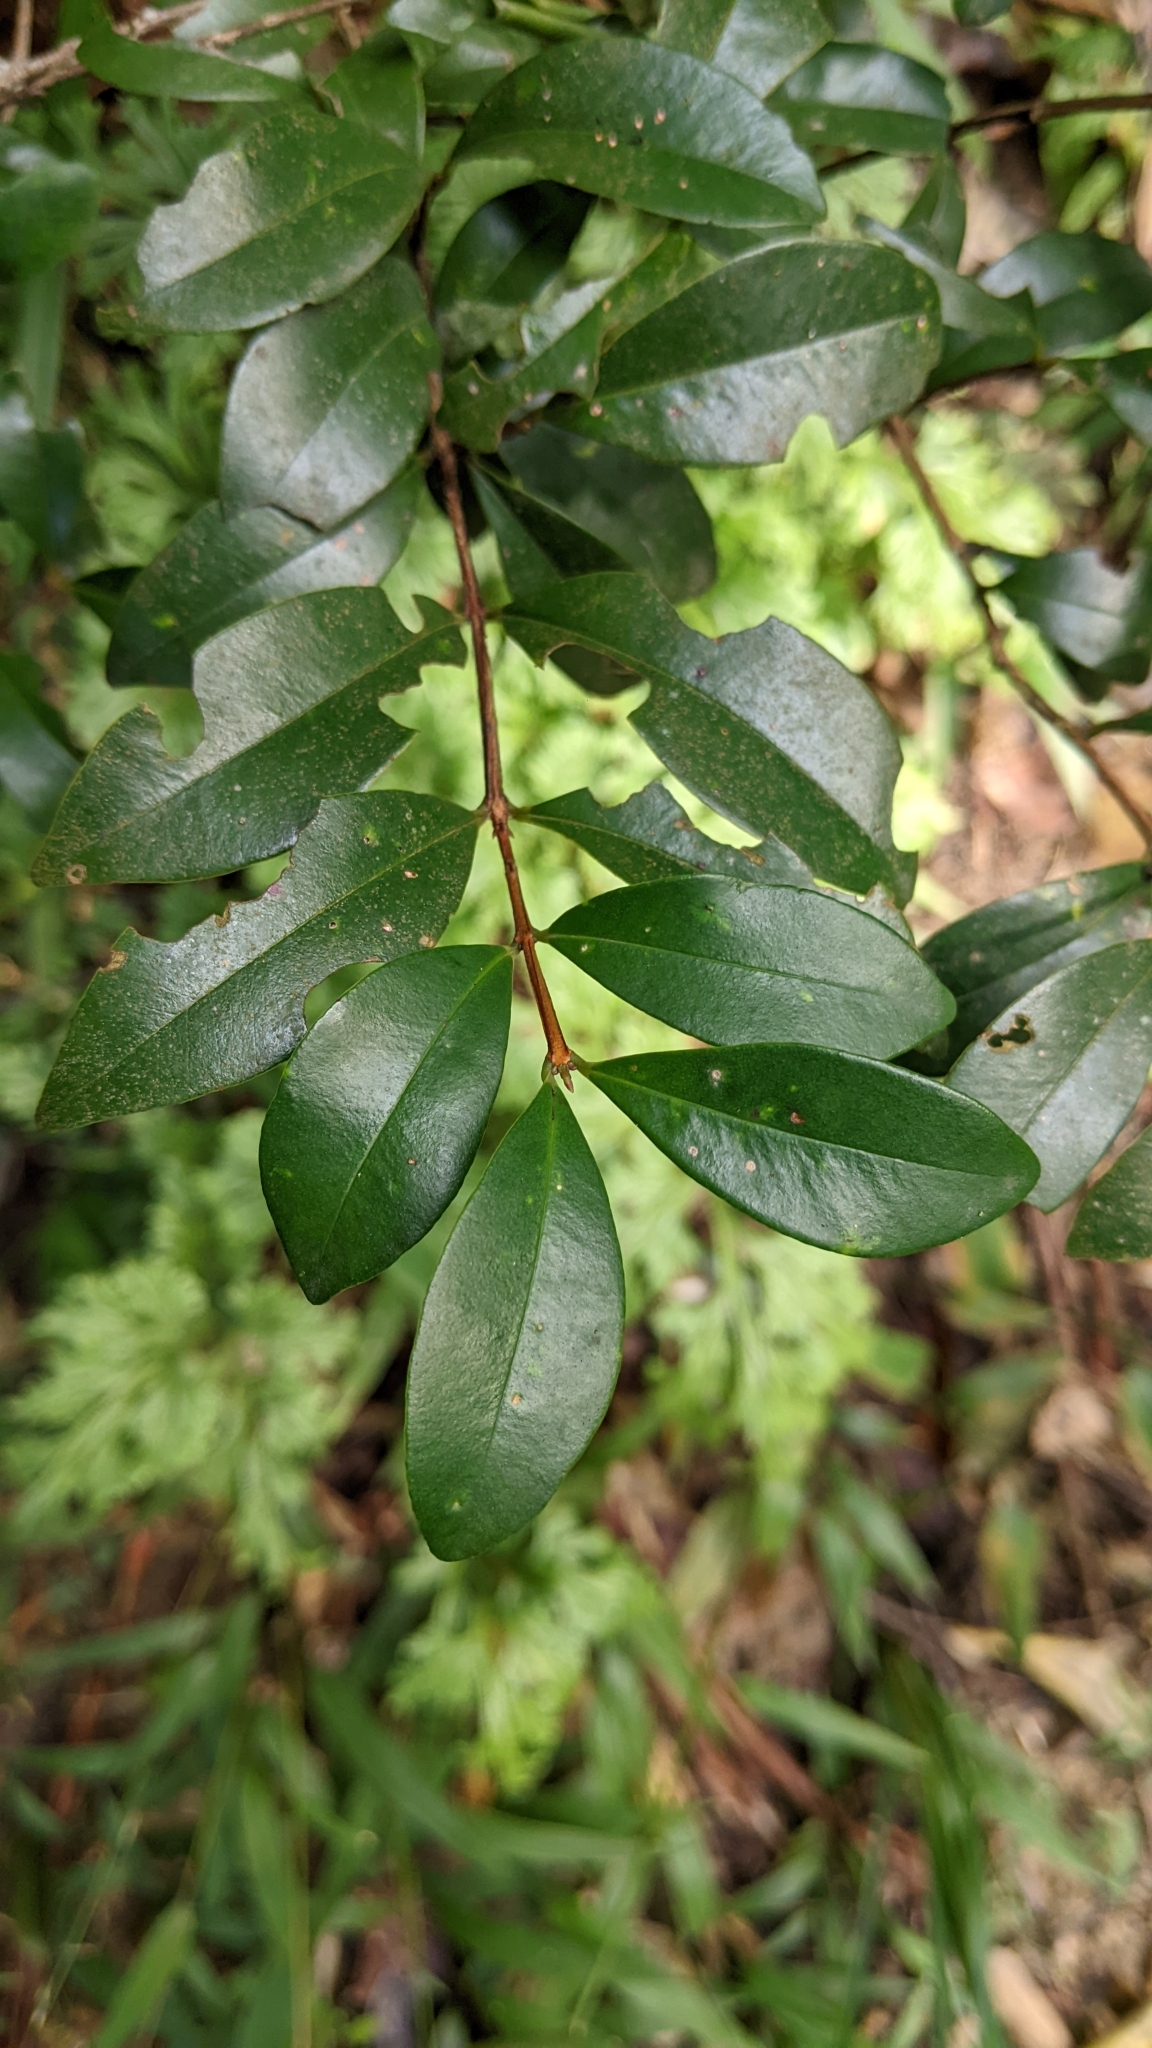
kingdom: Plantae
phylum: Tracheophyta
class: Magnoliopsida
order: Myrtales
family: Myrtaceae
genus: Syzygium
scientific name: Syzygium elliptifolium
